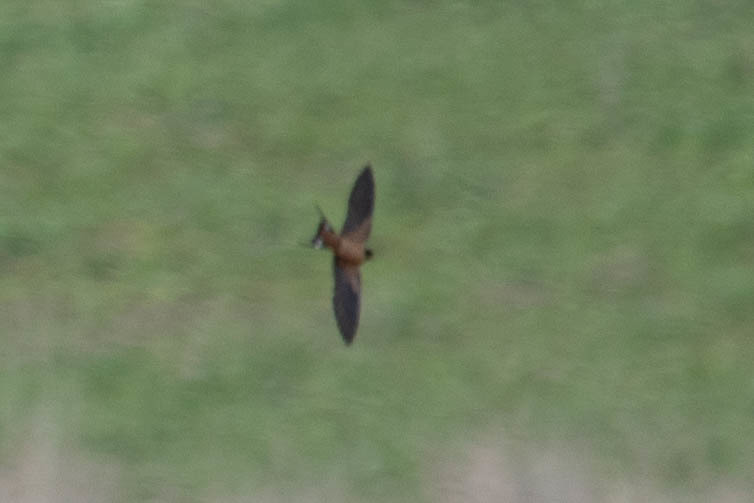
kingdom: Animalia
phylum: Chordata
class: Aves
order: Passeriformes
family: Hirundinidae
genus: Hirundo
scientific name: Hirundo rustica
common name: Barn swallow
